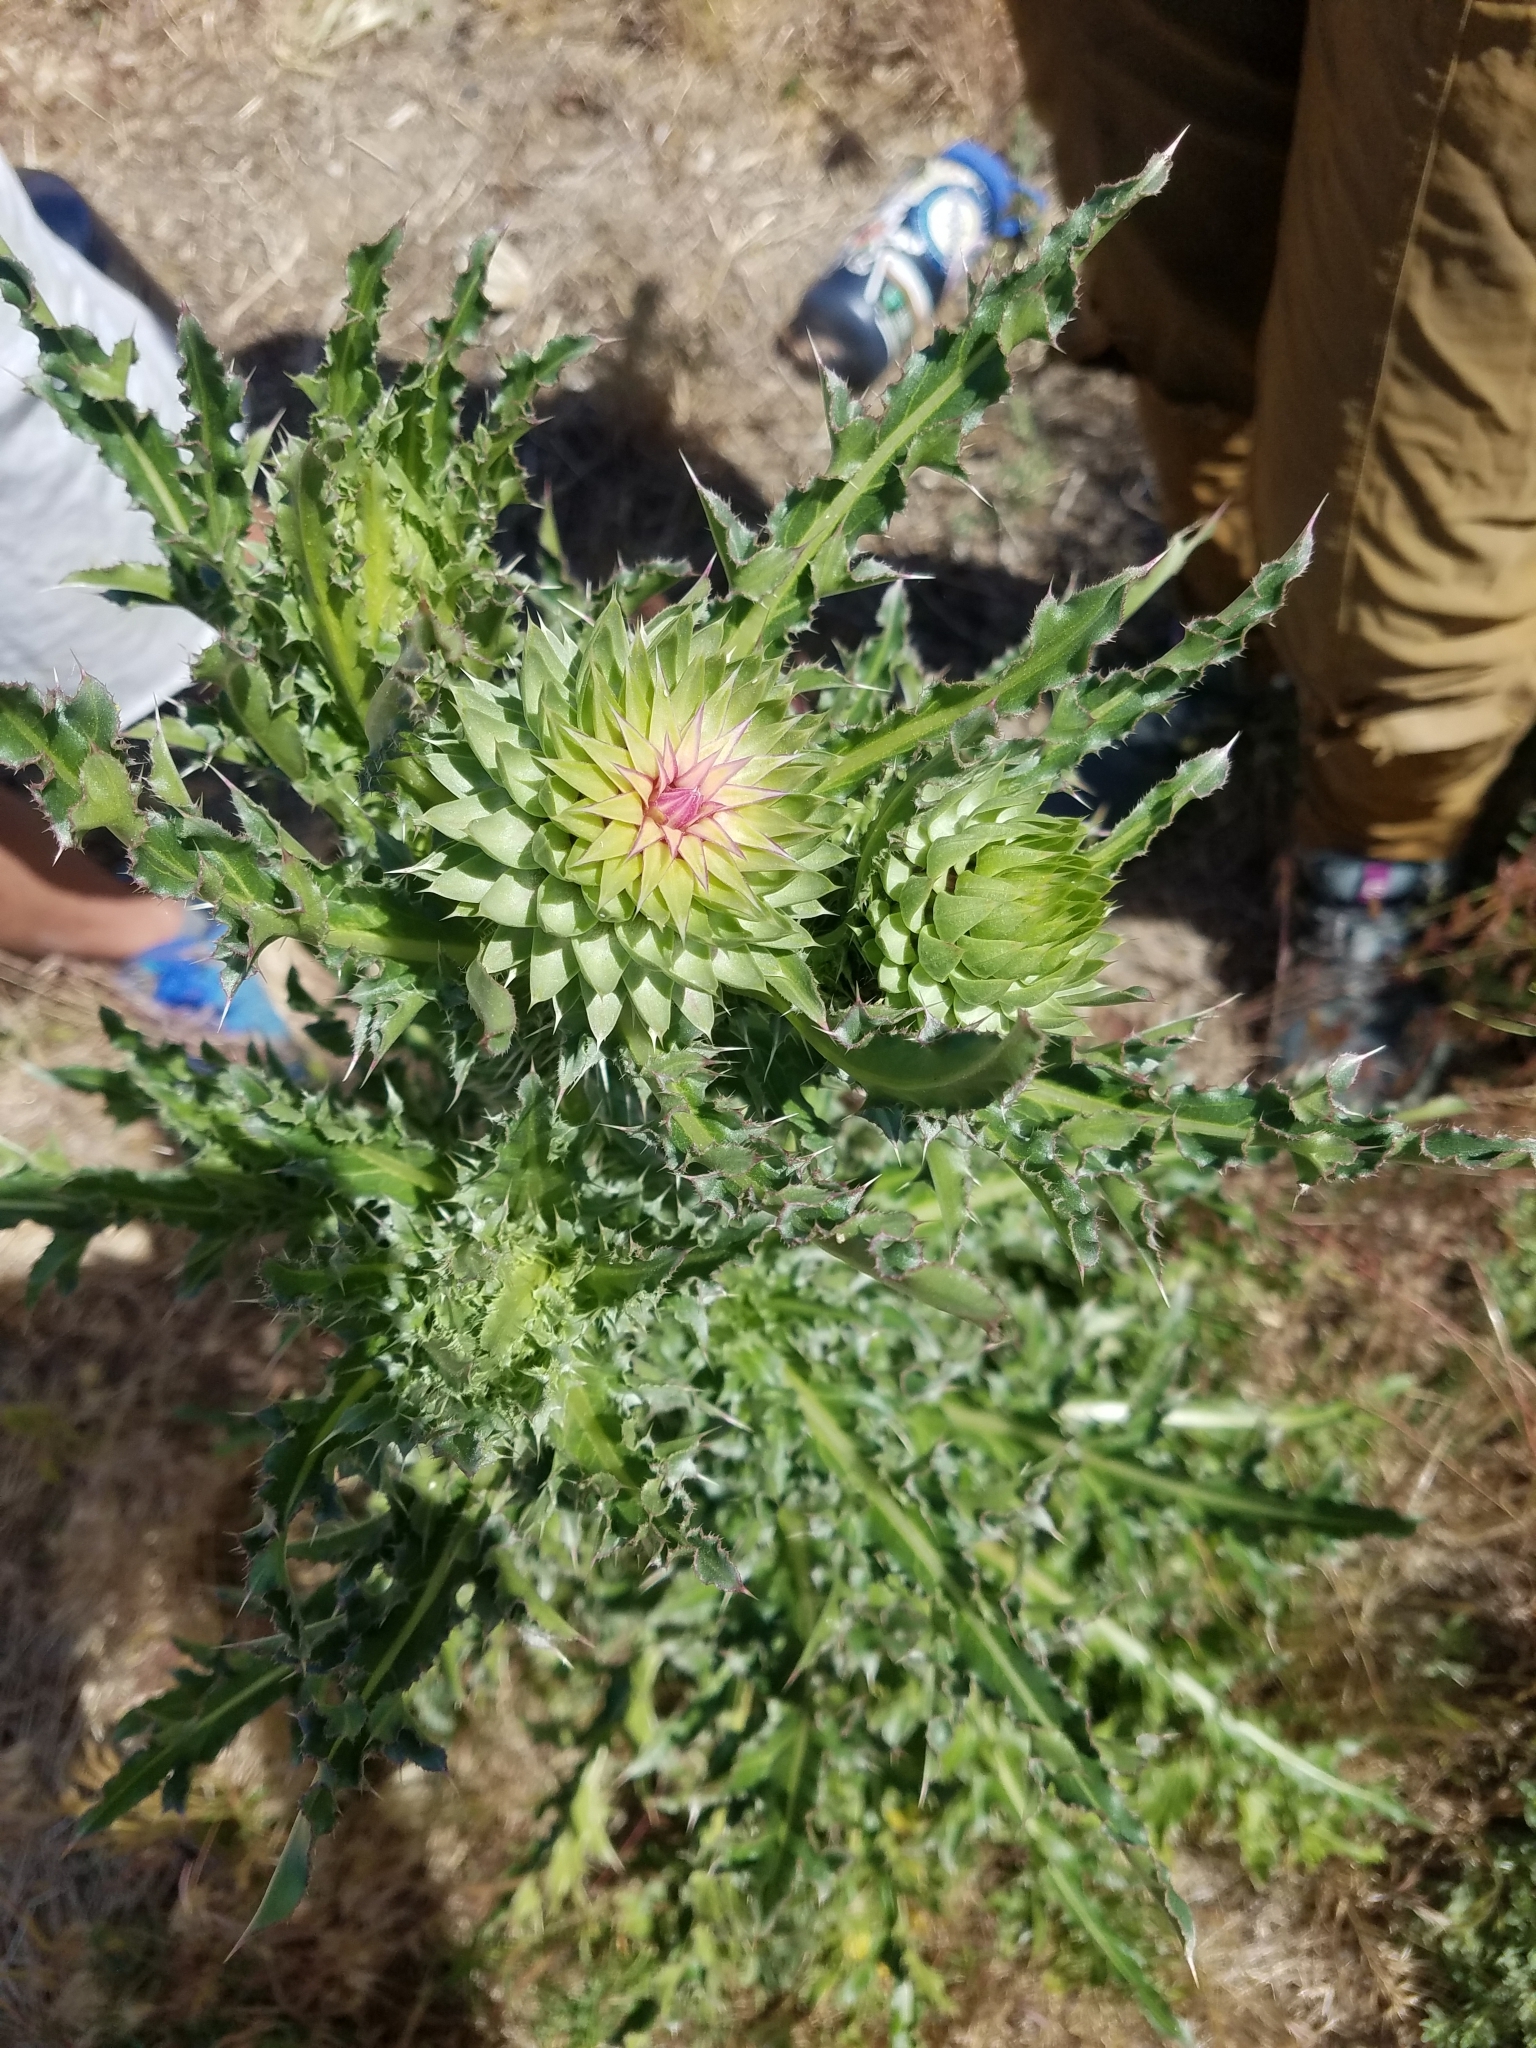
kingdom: Plantae
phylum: Tracheophyta
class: Magnoliopsida
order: Asterales
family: Asteraceae
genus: Carduus
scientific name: Carduus nutans
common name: Musk thistle
